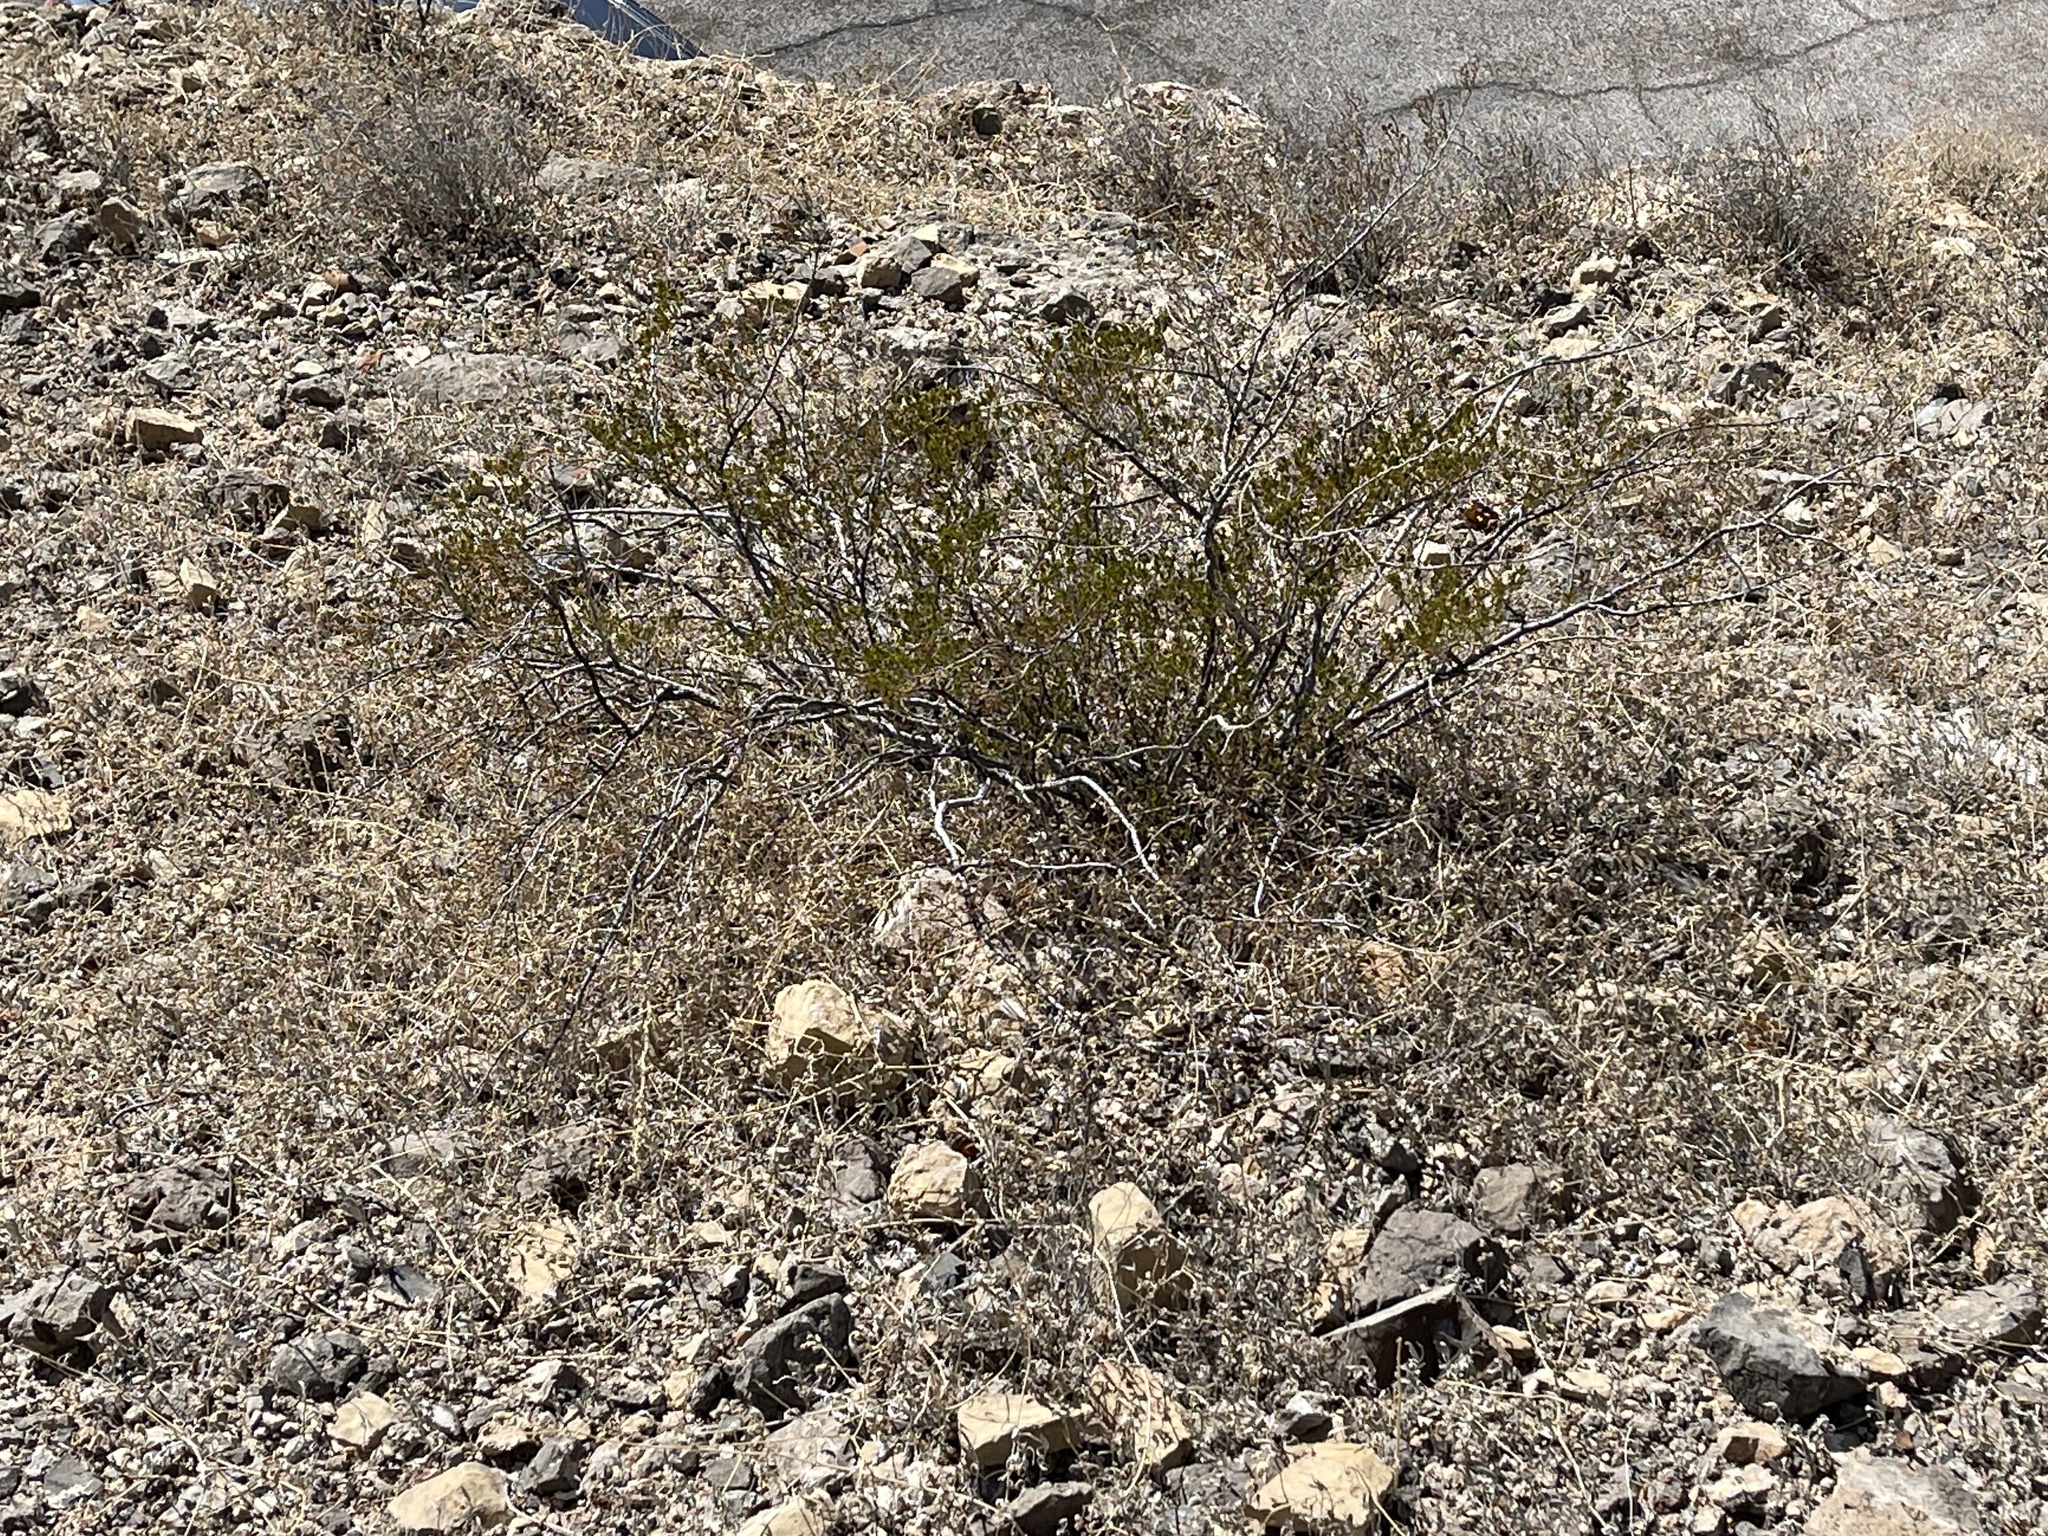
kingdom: Plantae
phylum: Tracheophyta
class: Magnoliopsida
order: Zygophyllales
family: Zygophyllaceae
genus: Larrea
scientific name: Larrea tridentata
